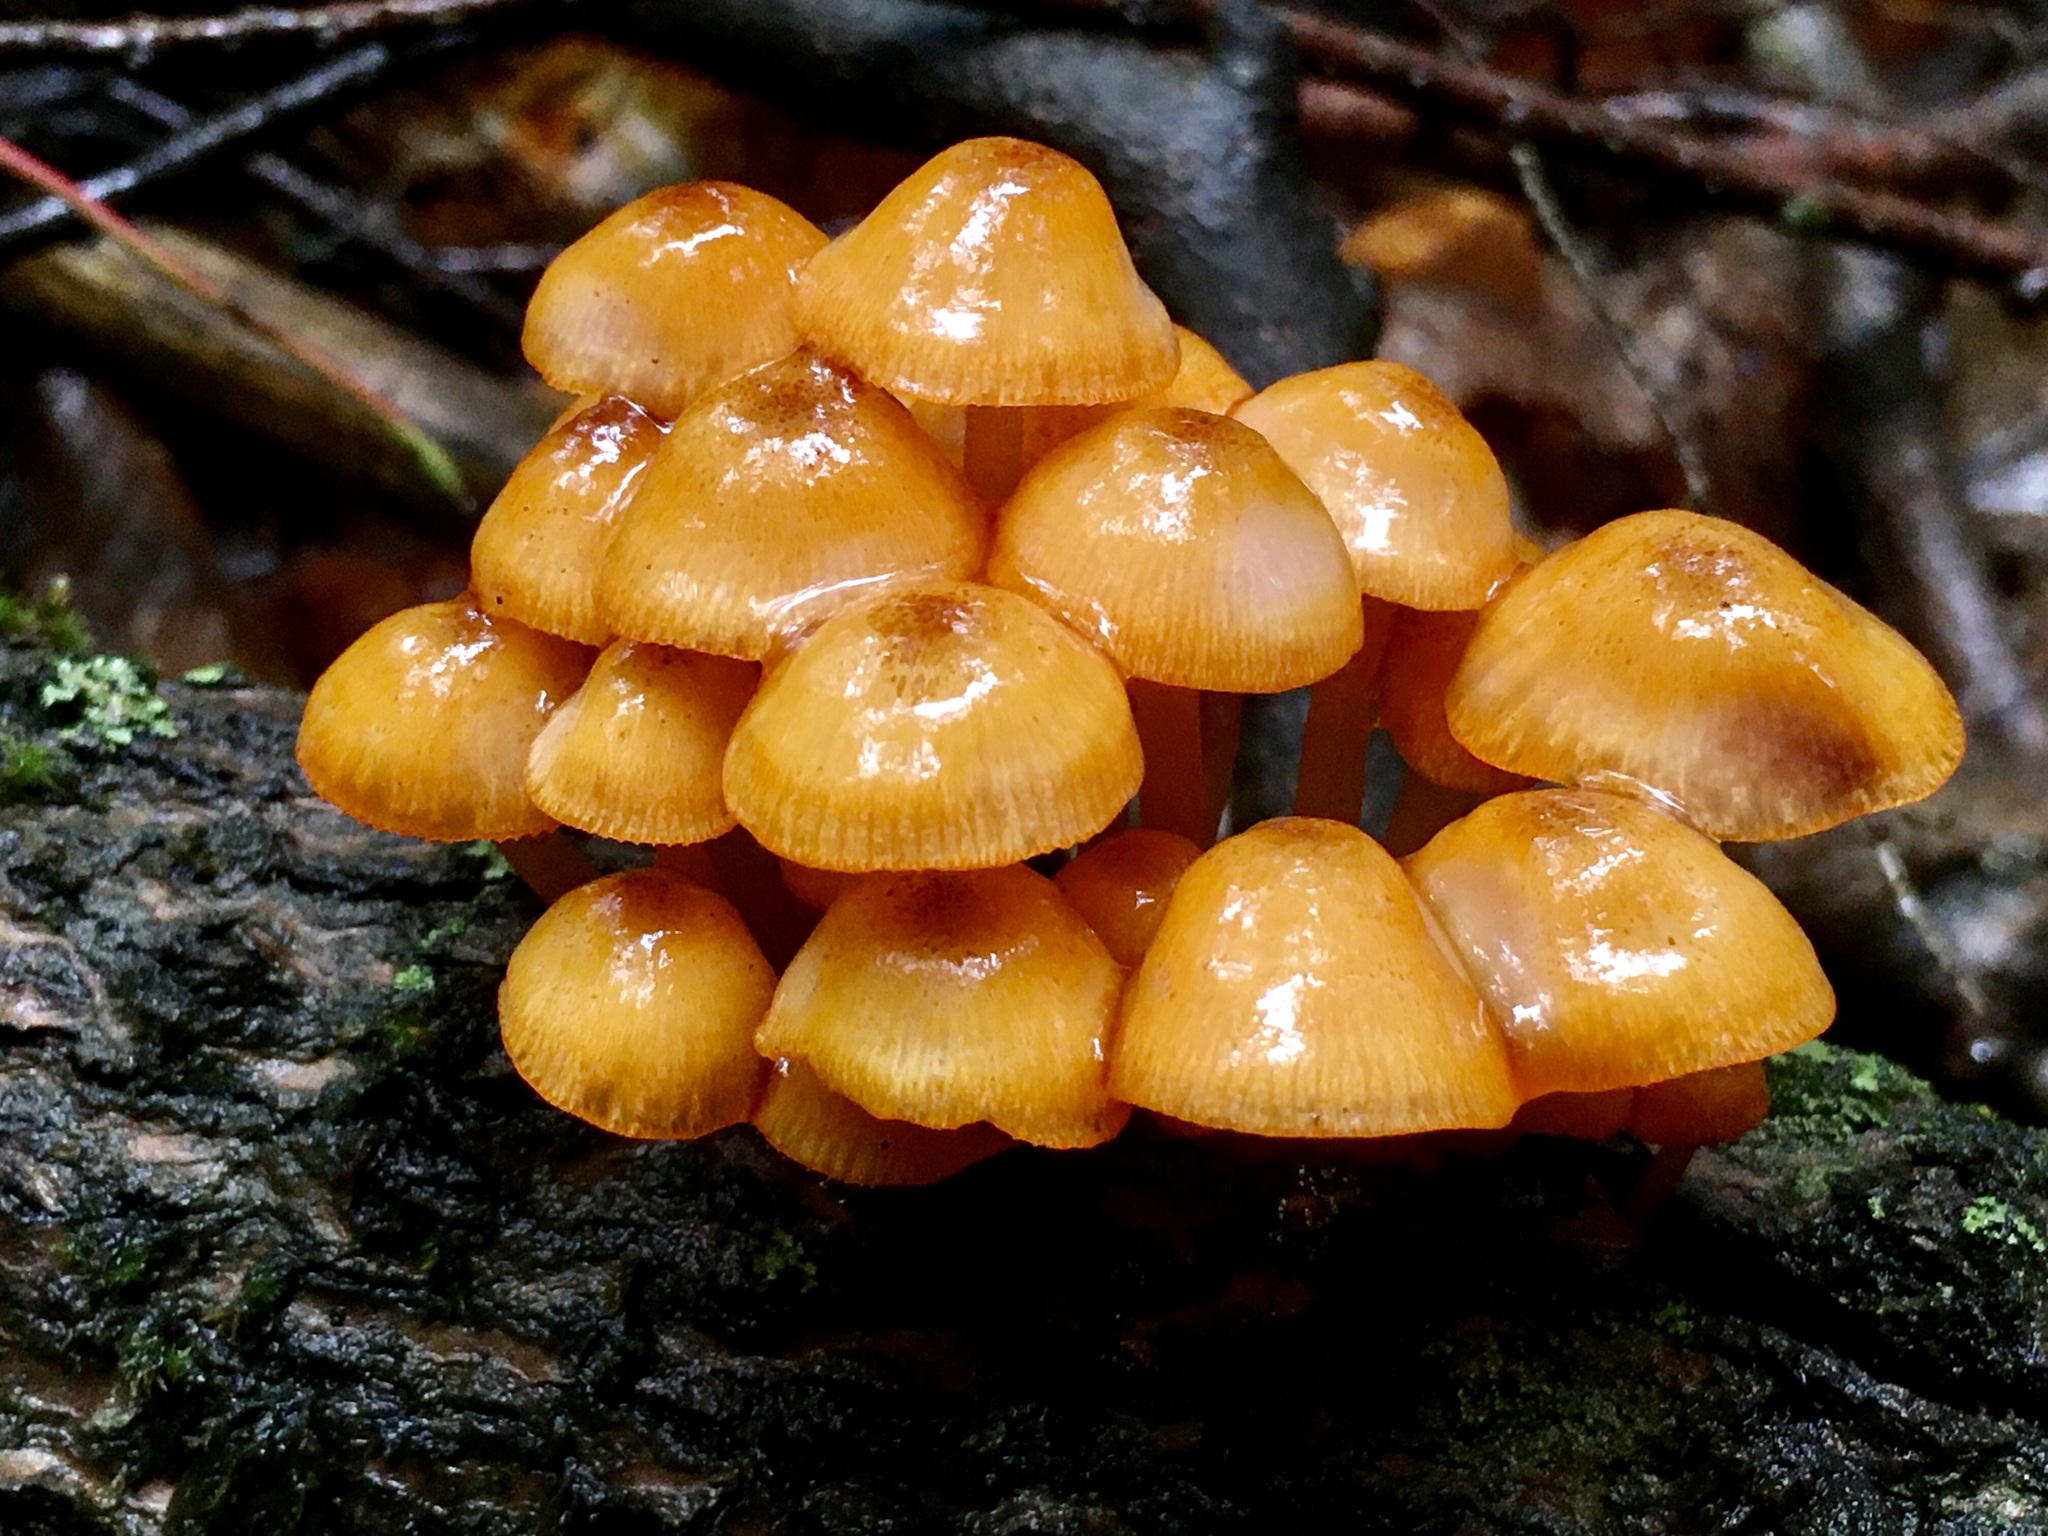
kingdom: Fungi
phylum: Basidiomycota
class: Agaricomycetes
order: Agaricales
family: Mycenaceae
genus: Mycena
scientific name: Mycena leaiana
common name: Orange mycena
